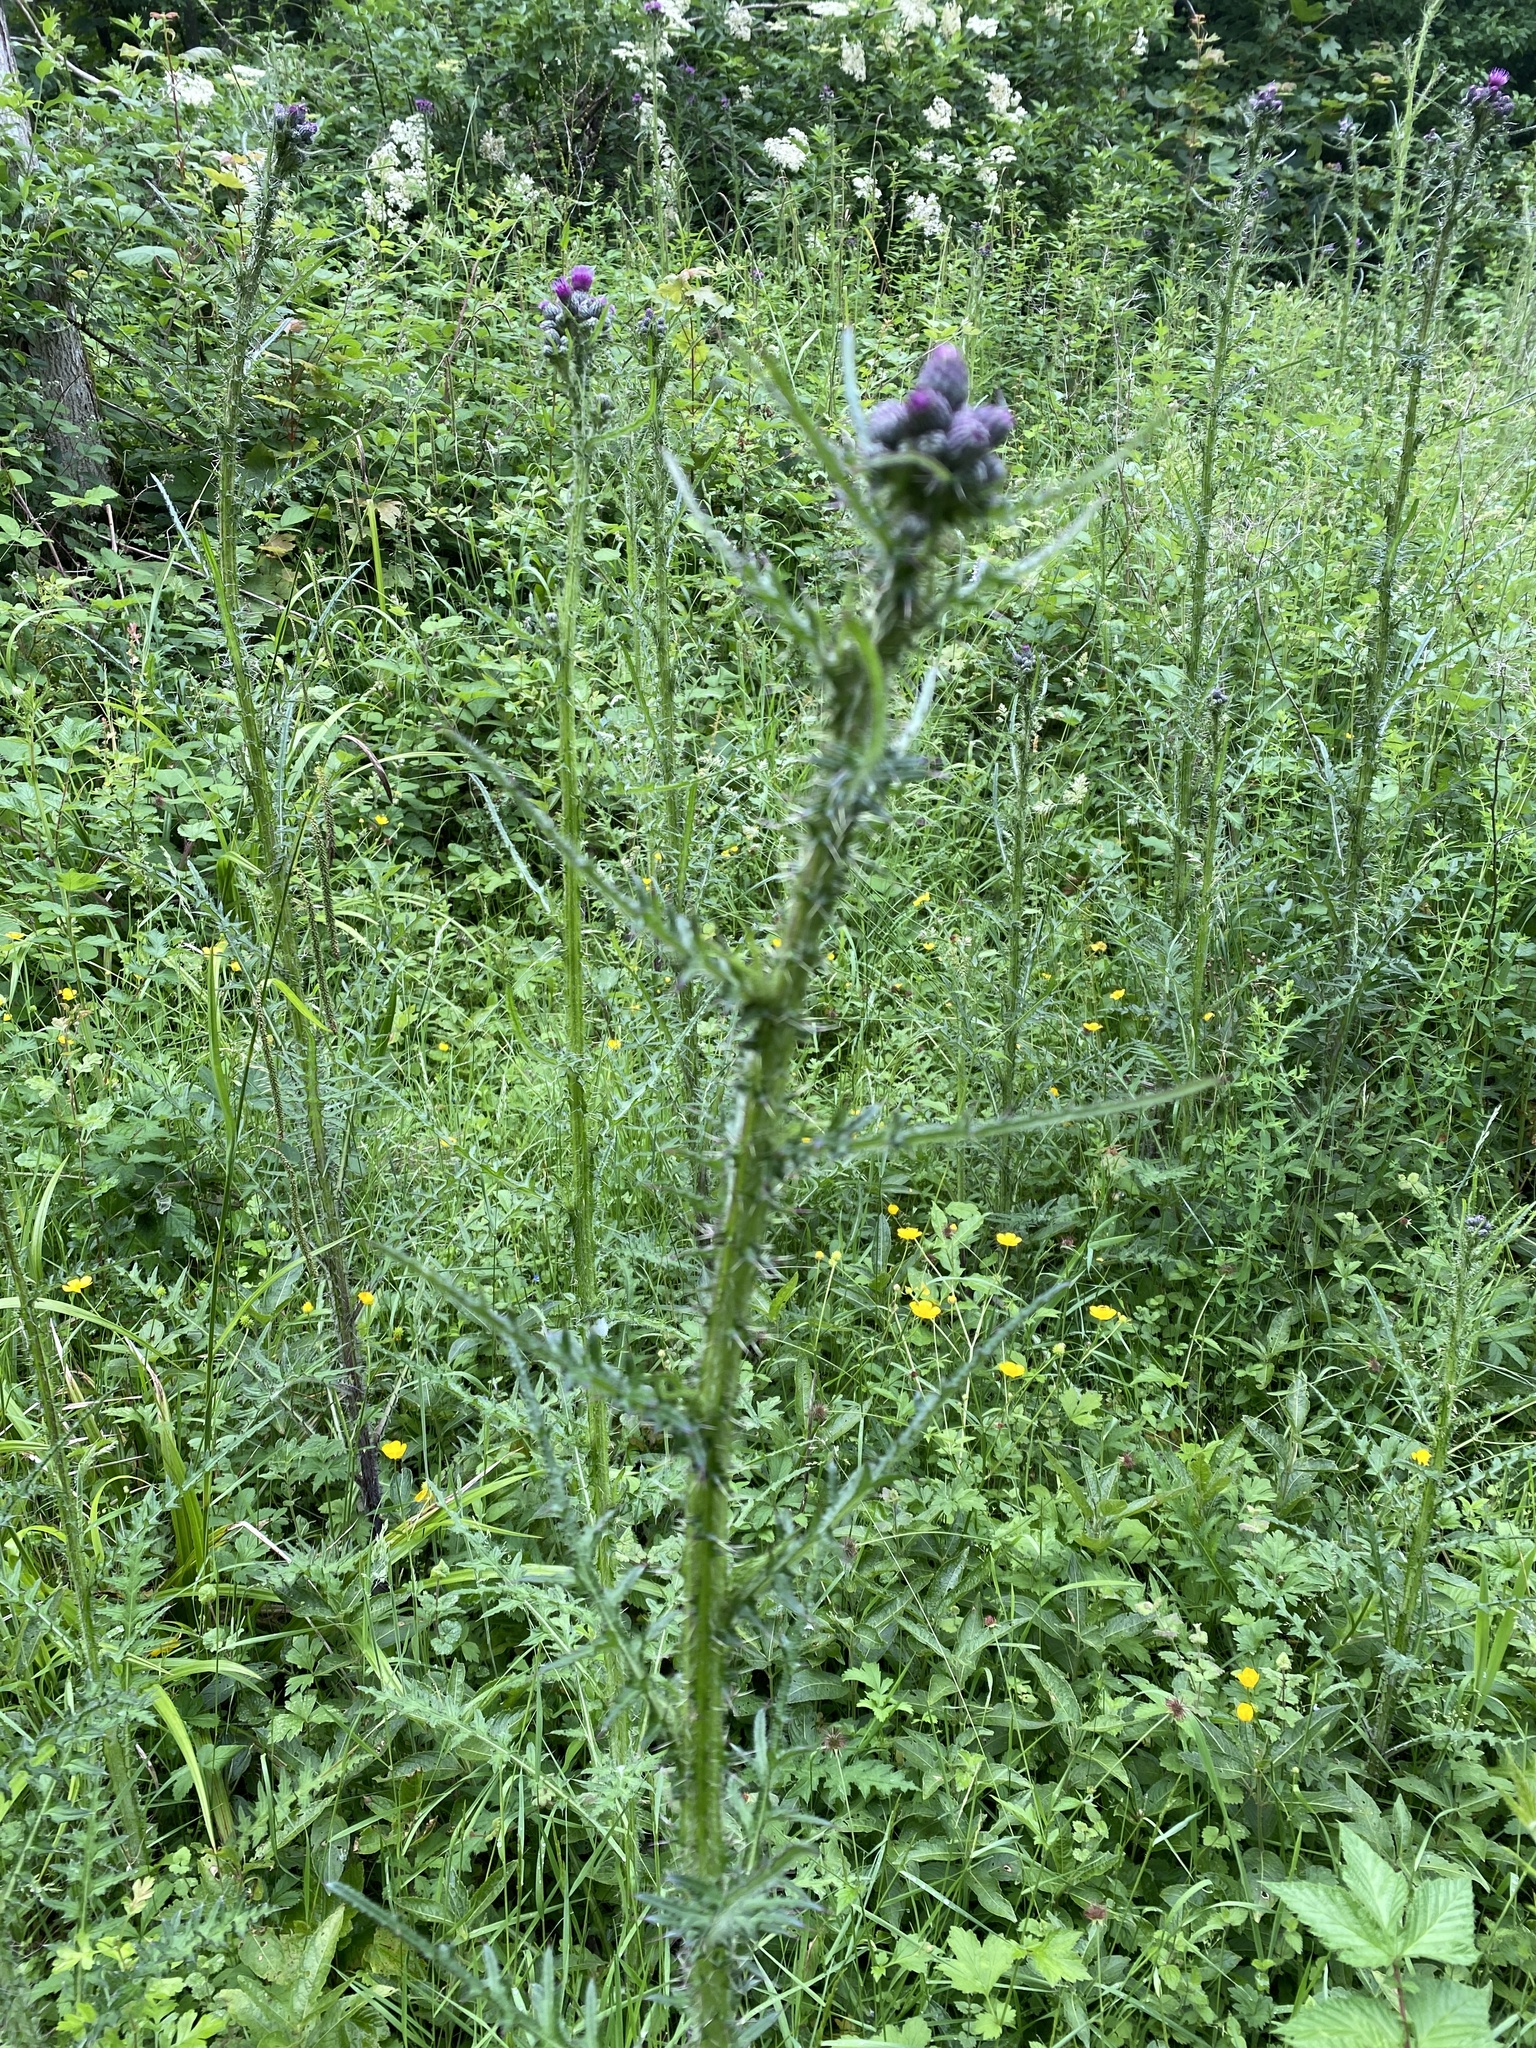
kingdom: Plantae
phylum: Tracheophyta
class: Magnoliopsida
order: Asterales
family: Asteraceae
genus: Cirsium
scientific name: Cirsium palustre
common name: Marsh thistle
